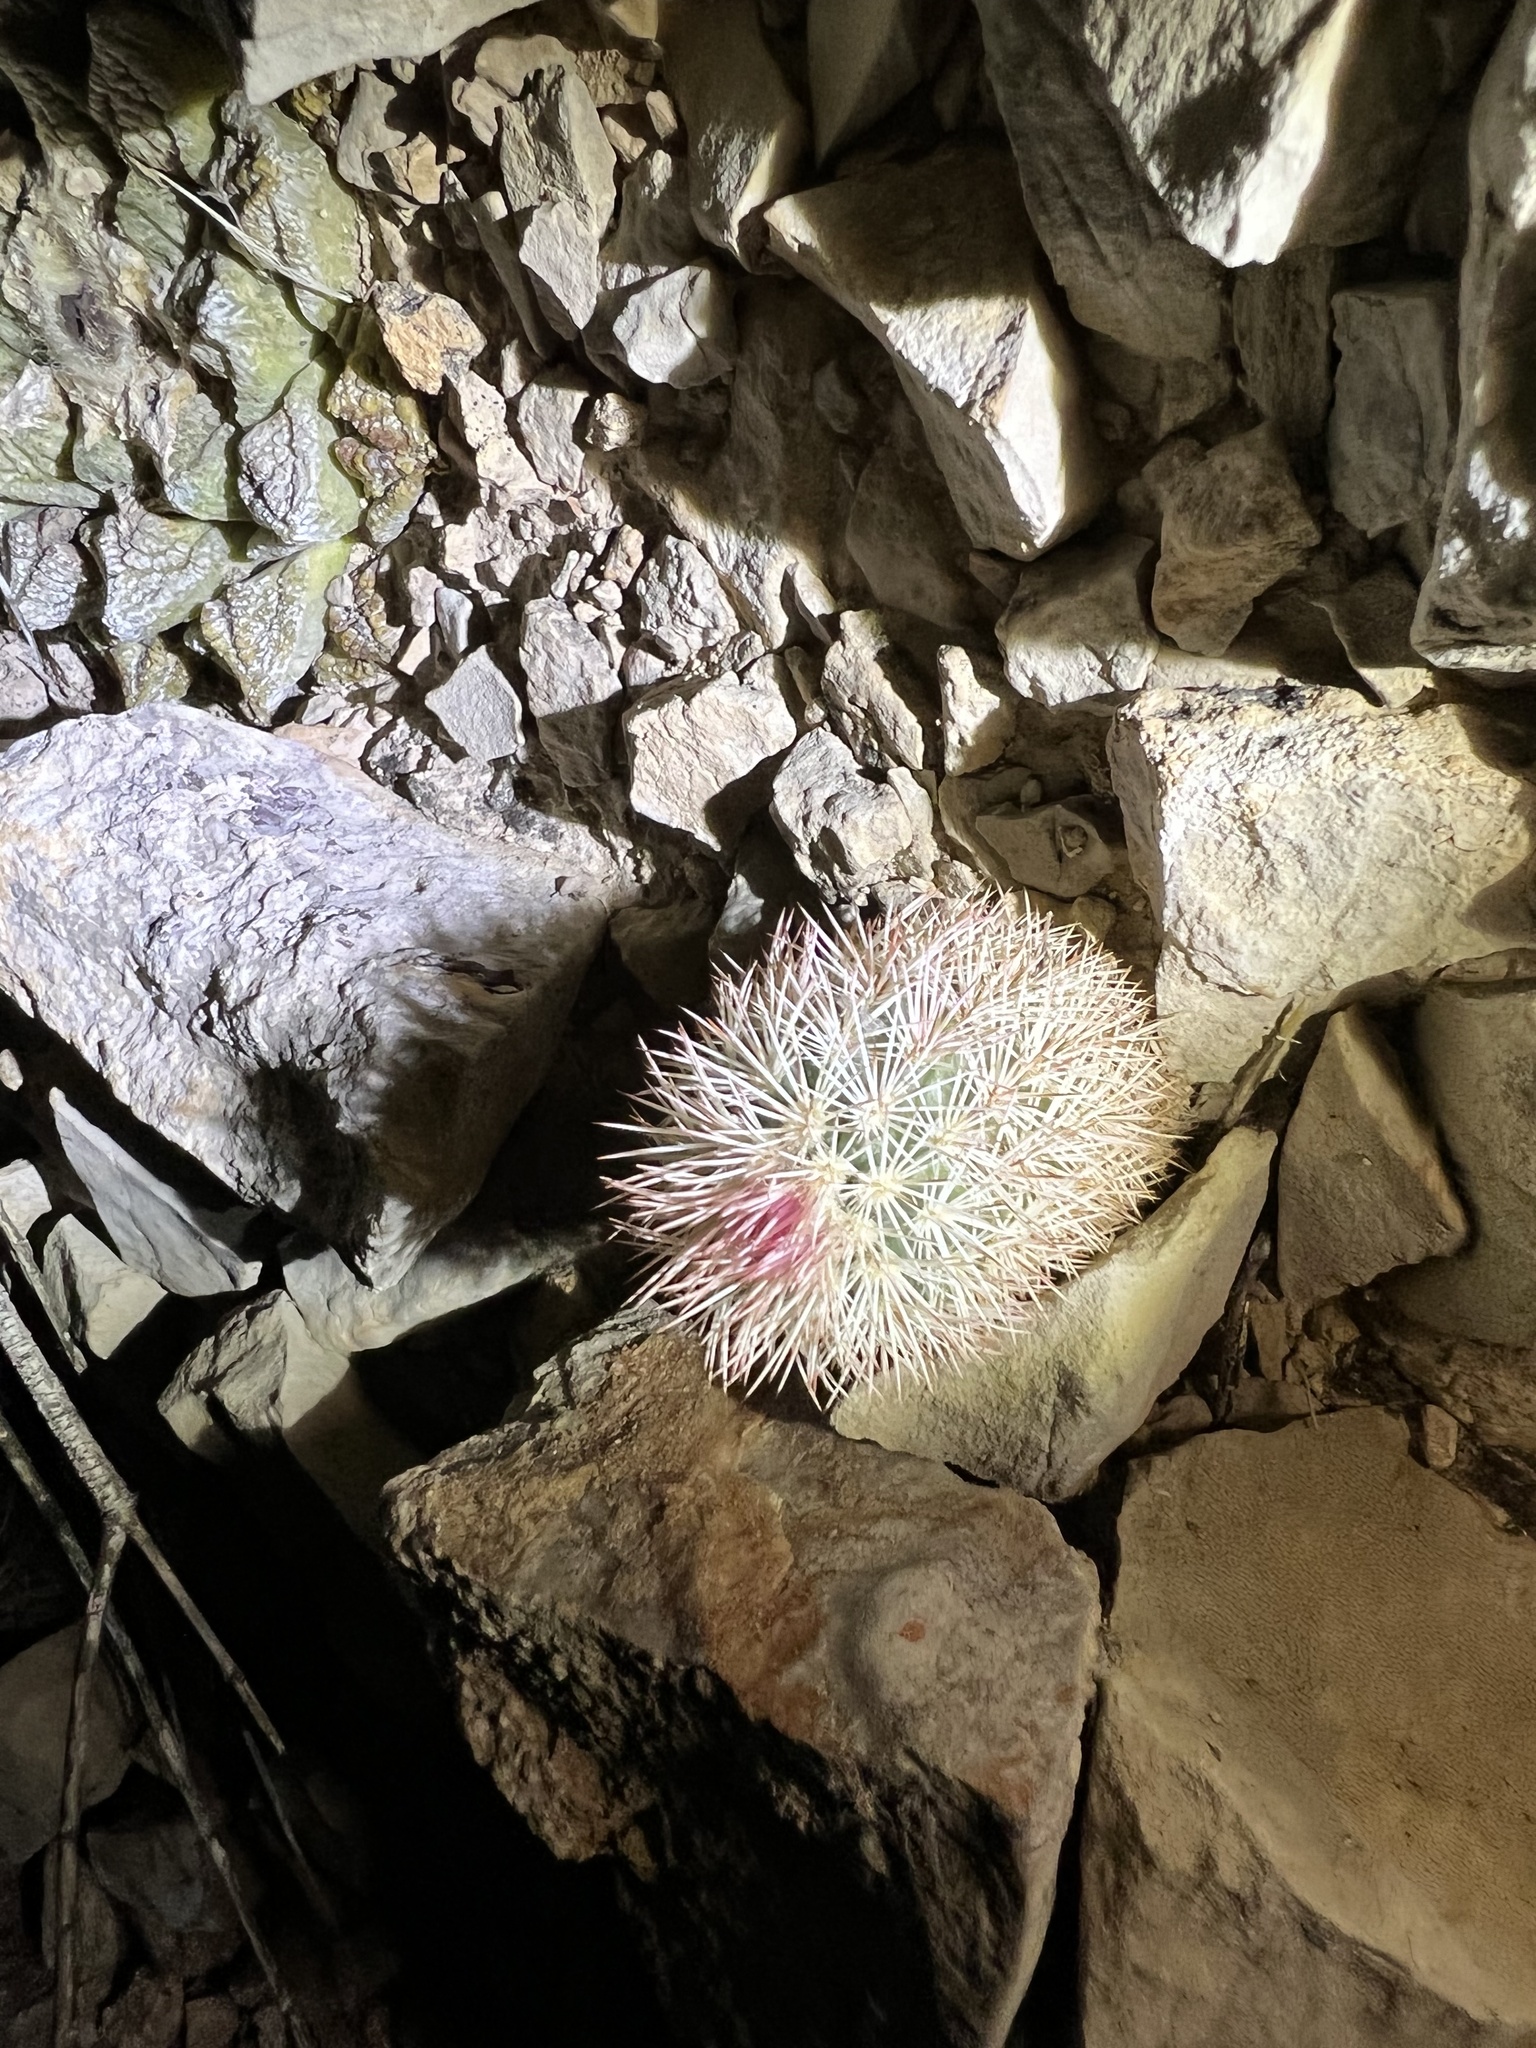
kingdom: Plantae
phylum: Tracheophyta
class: Magnoliopsida
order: Caryophyllales
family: Cactaceae
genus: Echinocereus
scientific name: Echinocereus dasyacanthus
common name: Spiny hedgehog cactus
